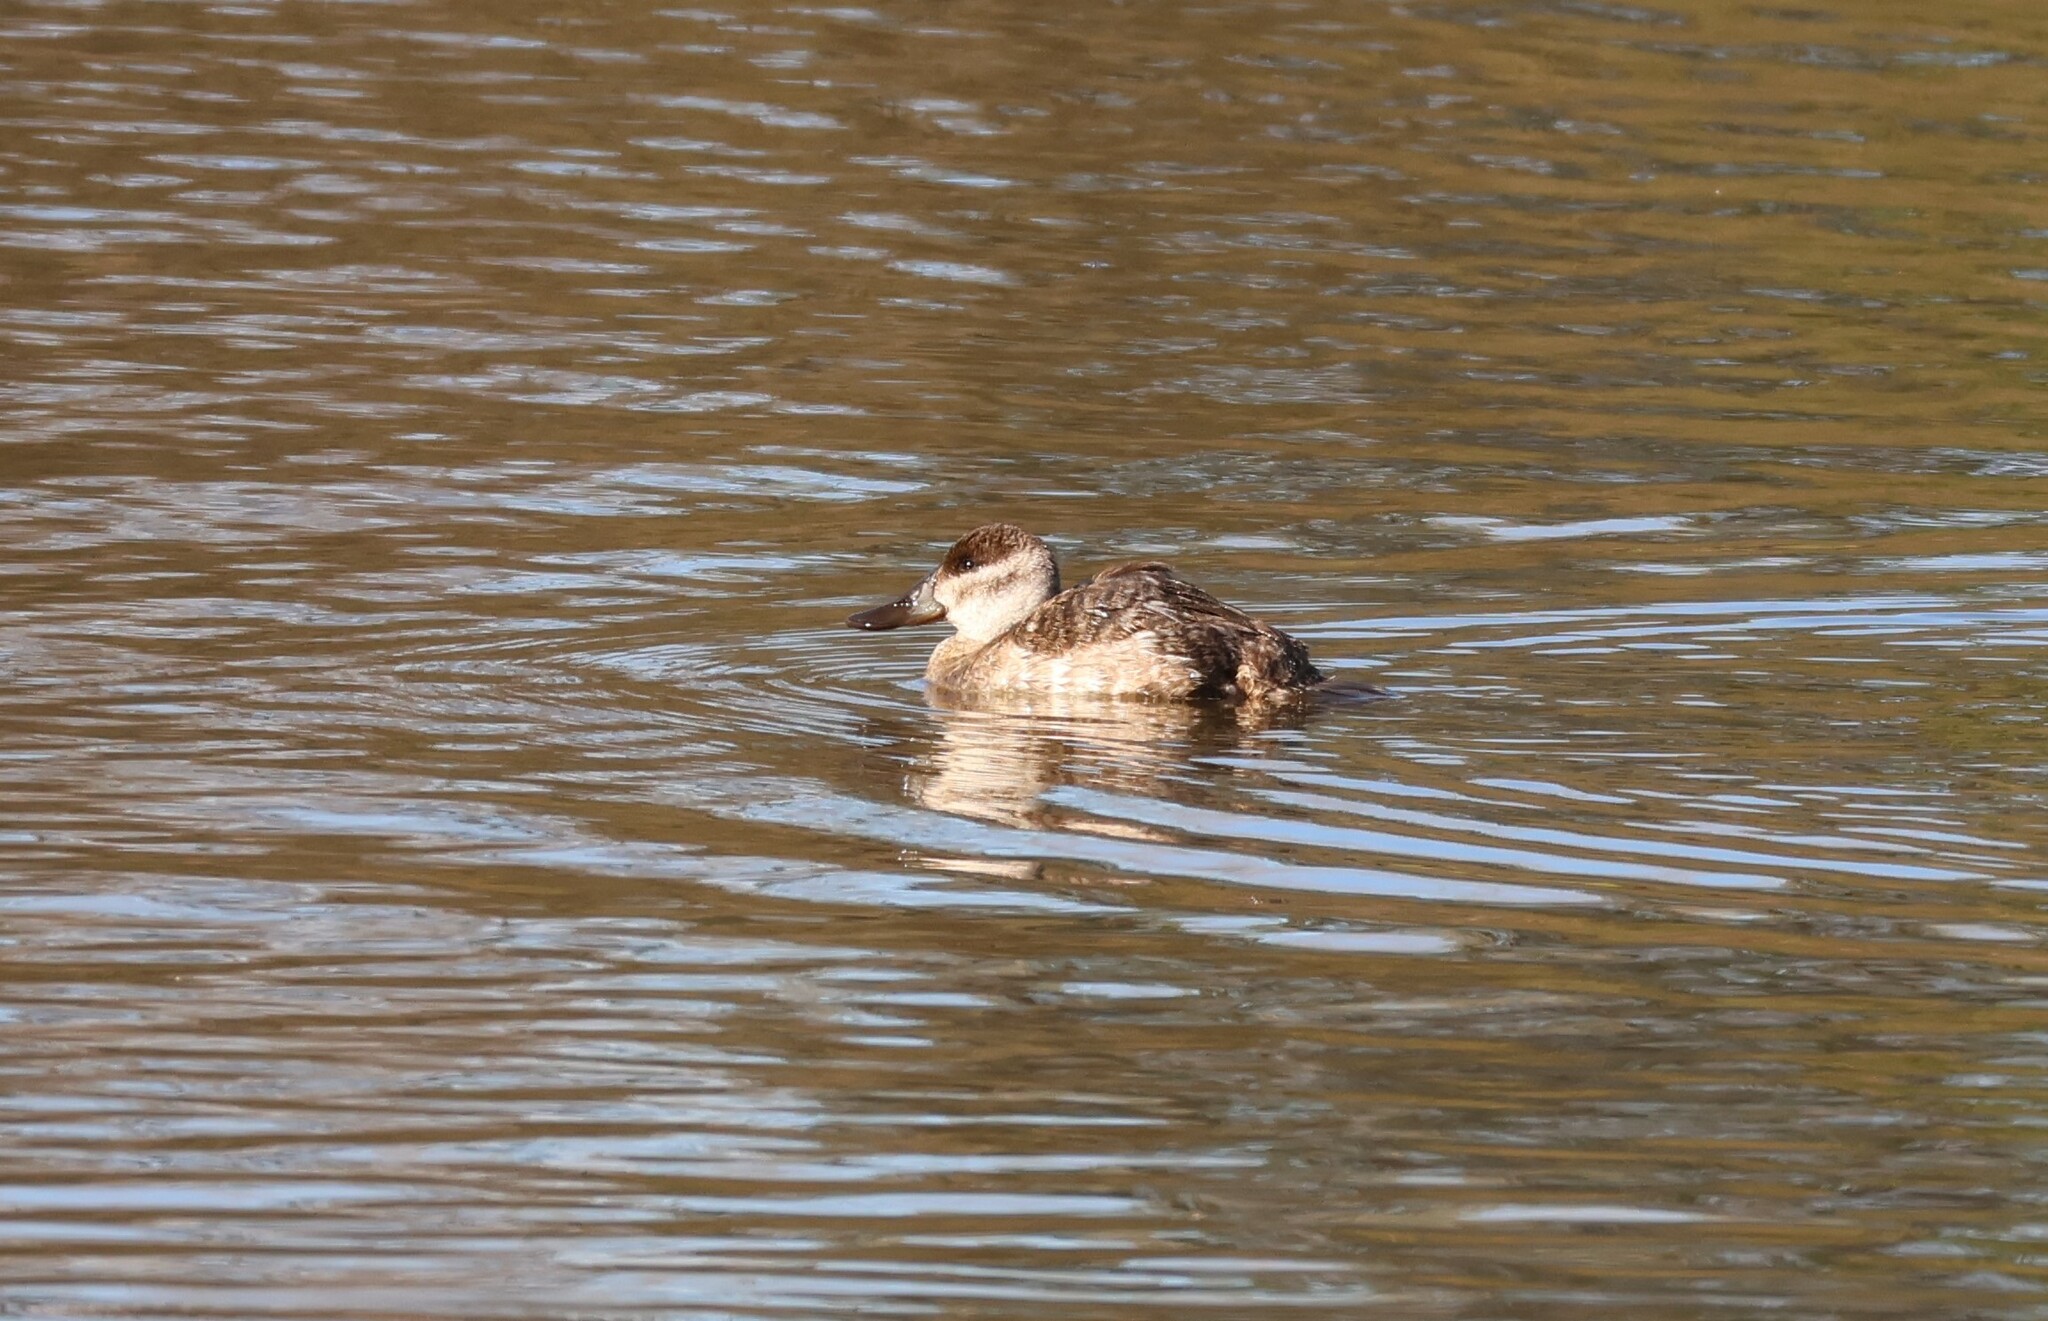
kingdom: Animalia
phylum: Chordata
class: Aves
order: Anseriformes
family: Anatidae
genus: Oxyura
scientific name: Oxyura jamaicensis
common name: Ruddy duck
